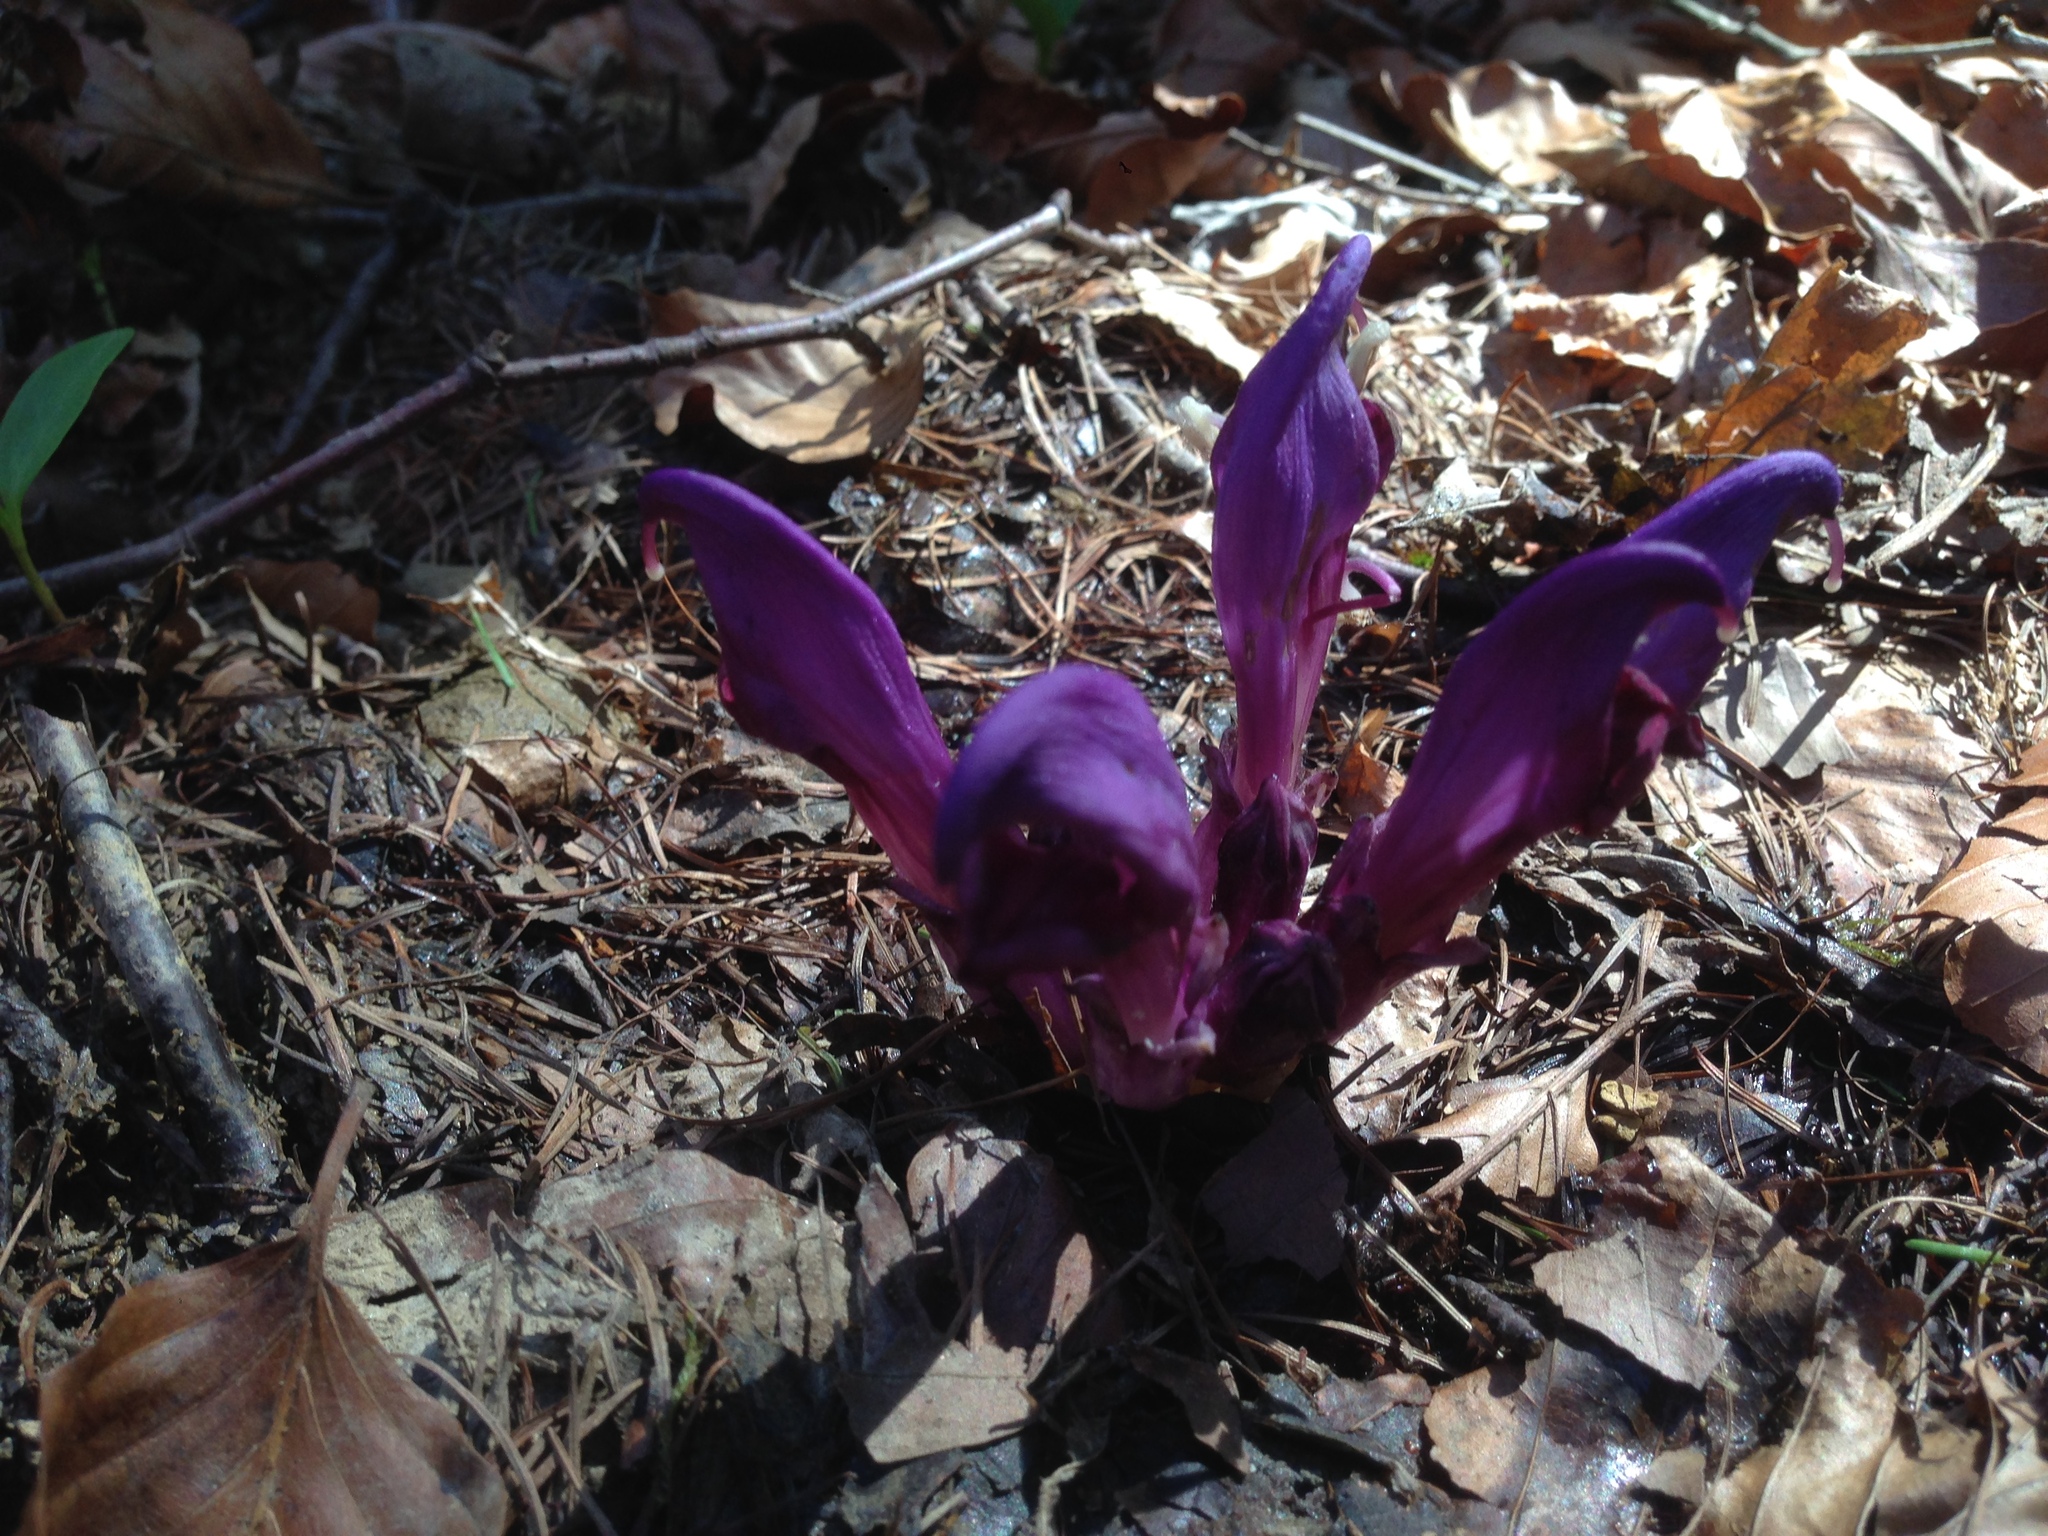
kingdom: Plantae
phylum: Tracheophyta
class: Magnoliopsida
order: Lamiales
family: Orobanchaceae
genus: Lathraea
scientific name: Lathraea clandestina
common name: Purple toothwort
